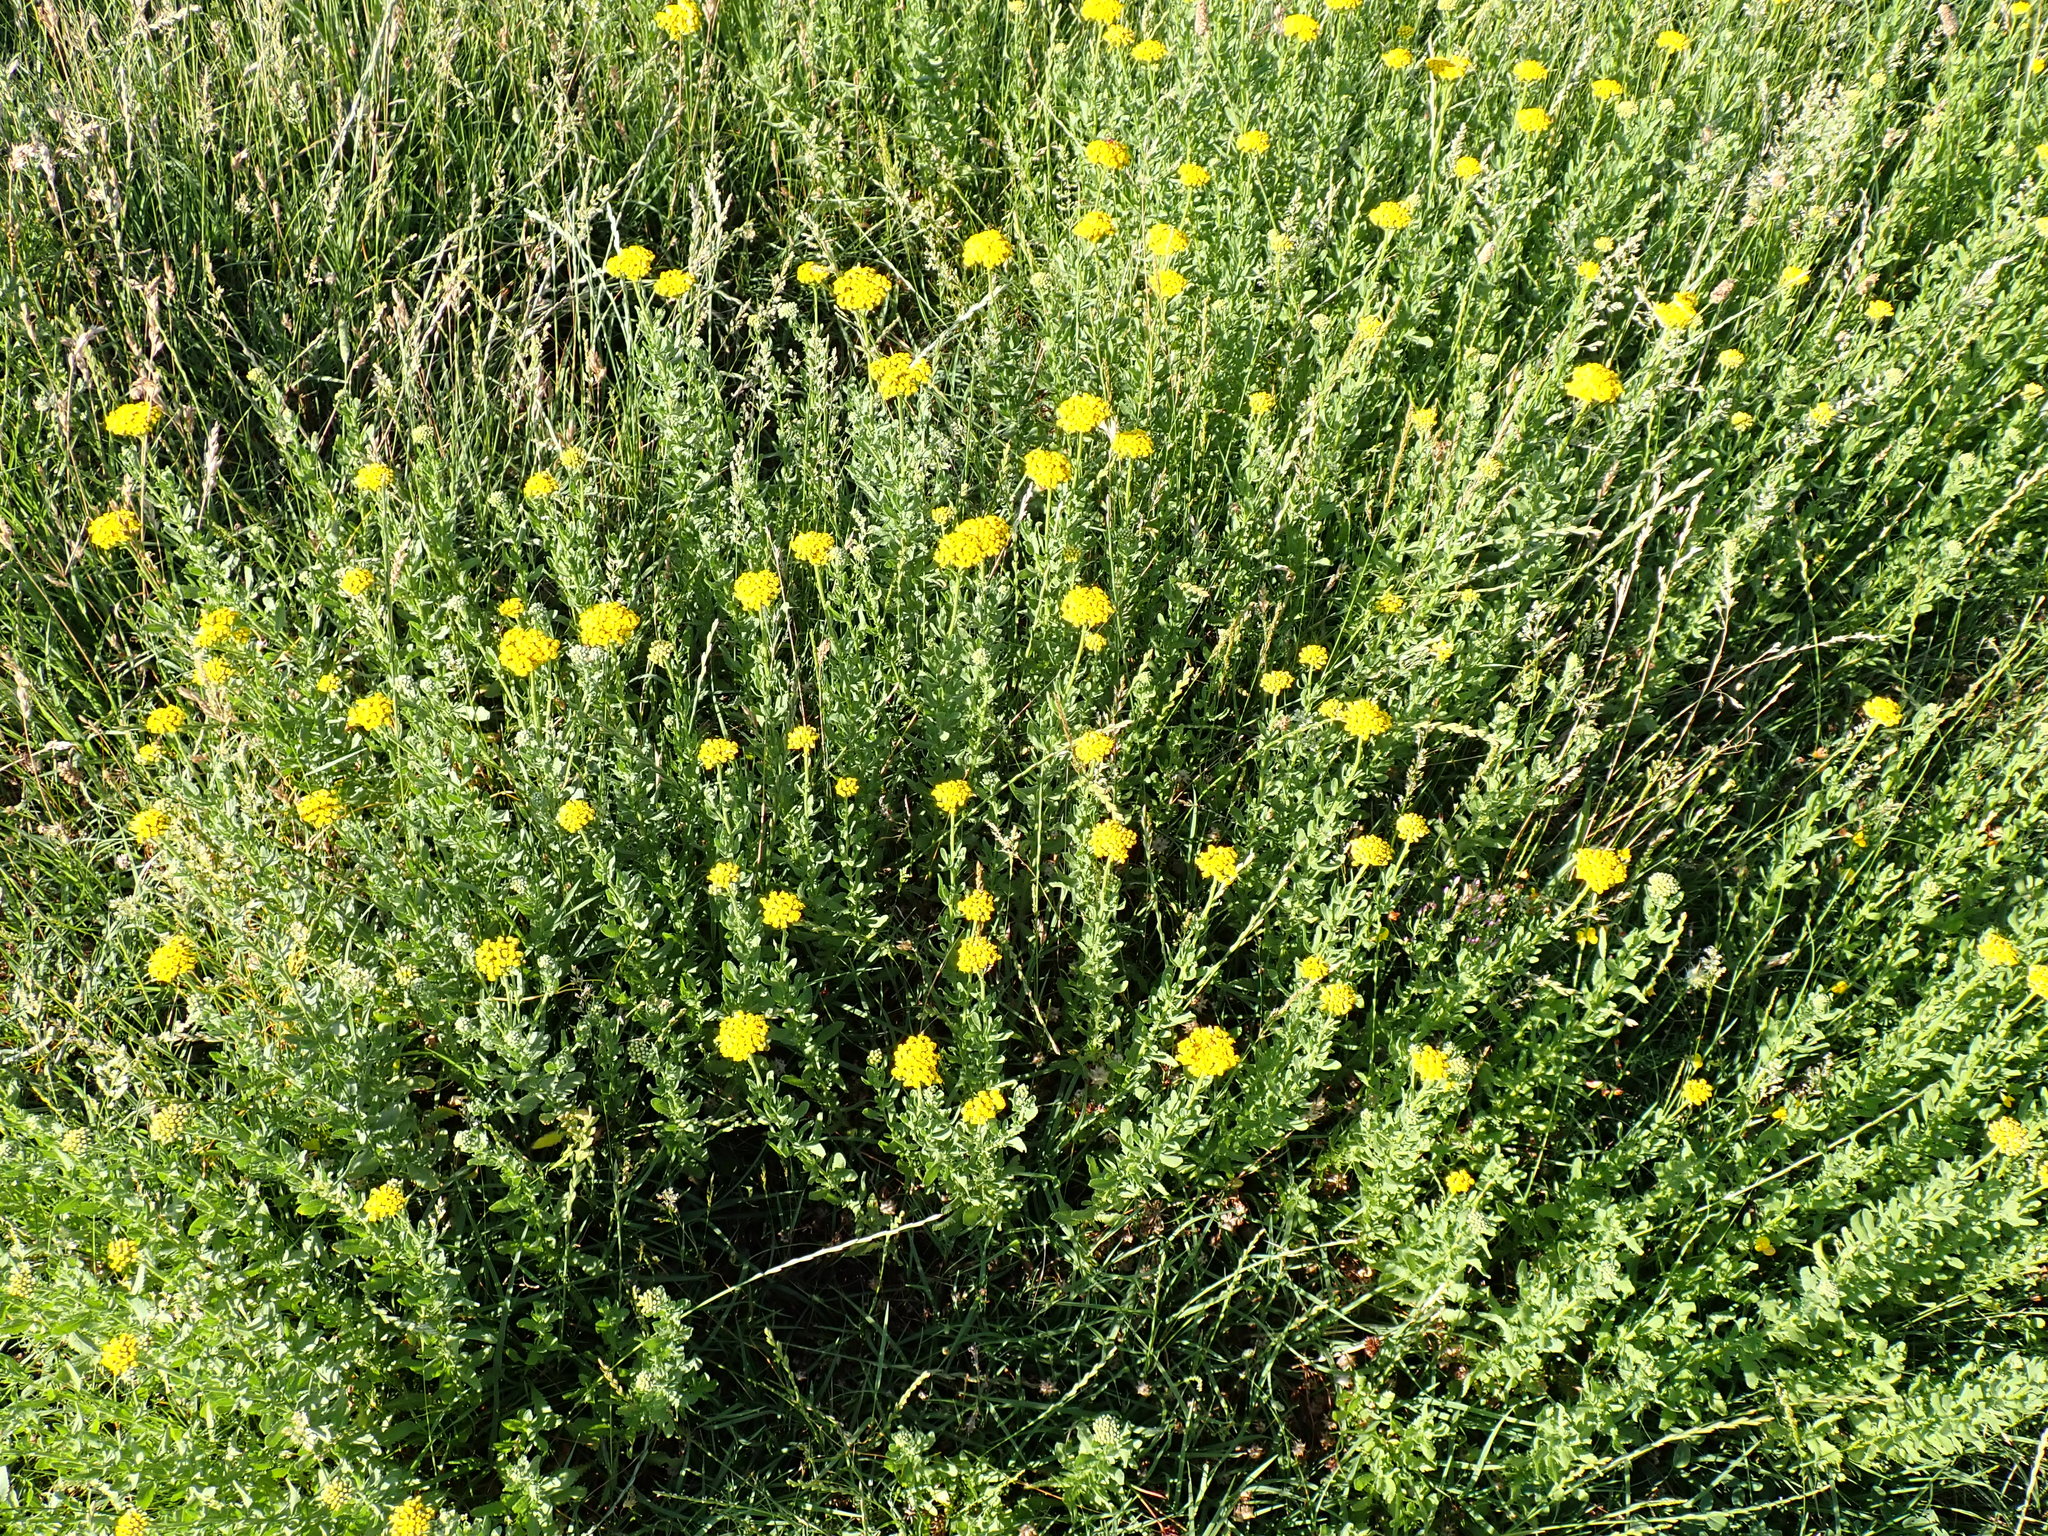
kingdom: Plantae
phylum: Tracheophyta
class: Magnoliopsida
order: Asterales
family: Asteraceae
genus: Achillea
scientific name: Achillea ageratum
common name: Sweet-nancy
